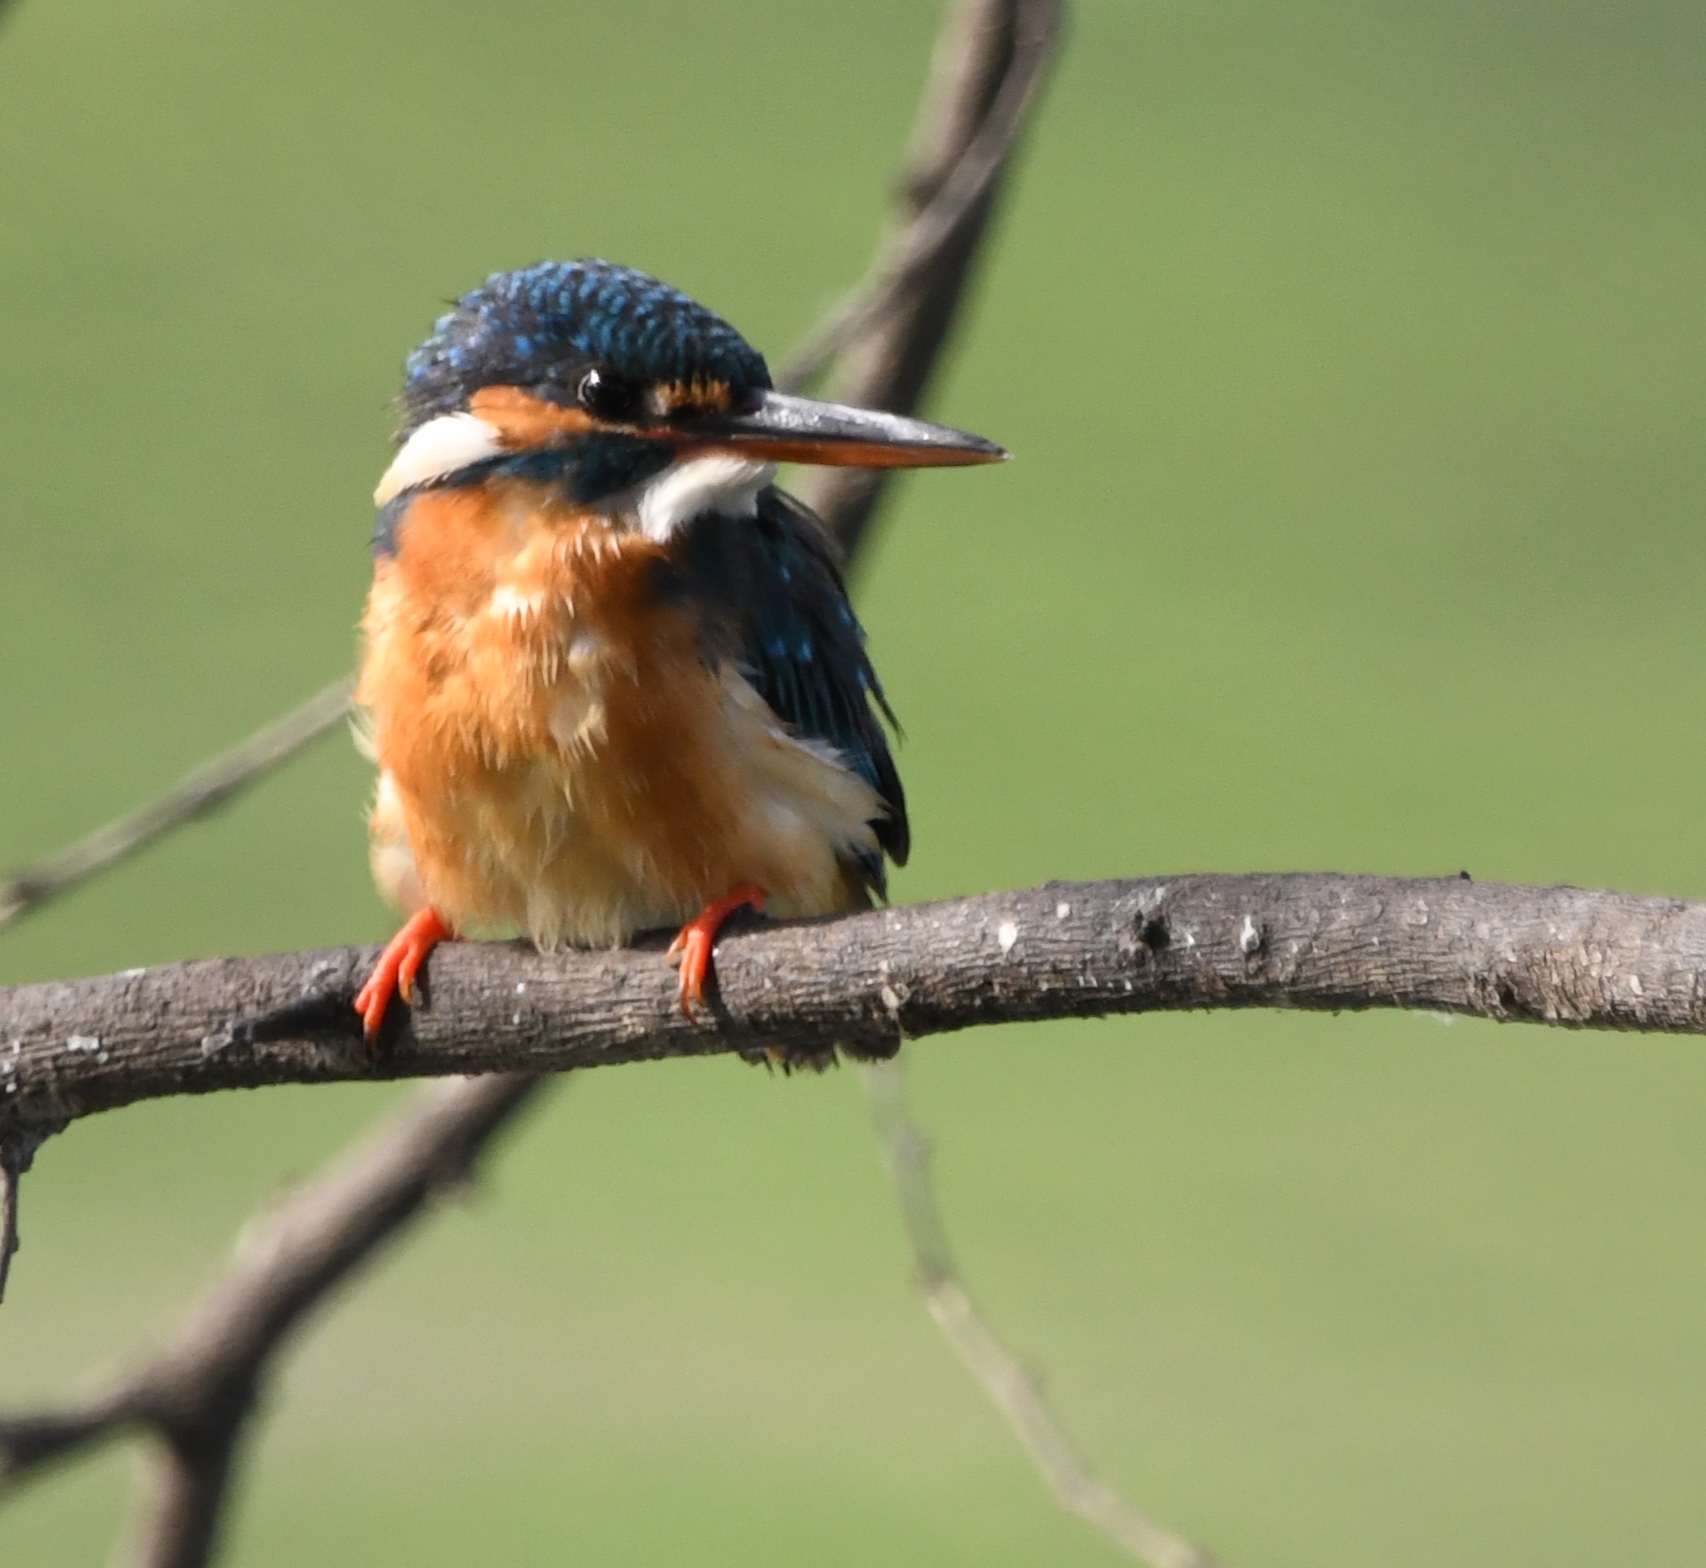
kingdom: Animalia
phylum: Chordata
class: Aves
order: Coraciiformes
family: Alcedinidae
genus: Alcedo
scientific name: Alcedo atthis
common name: Common kingfisher
